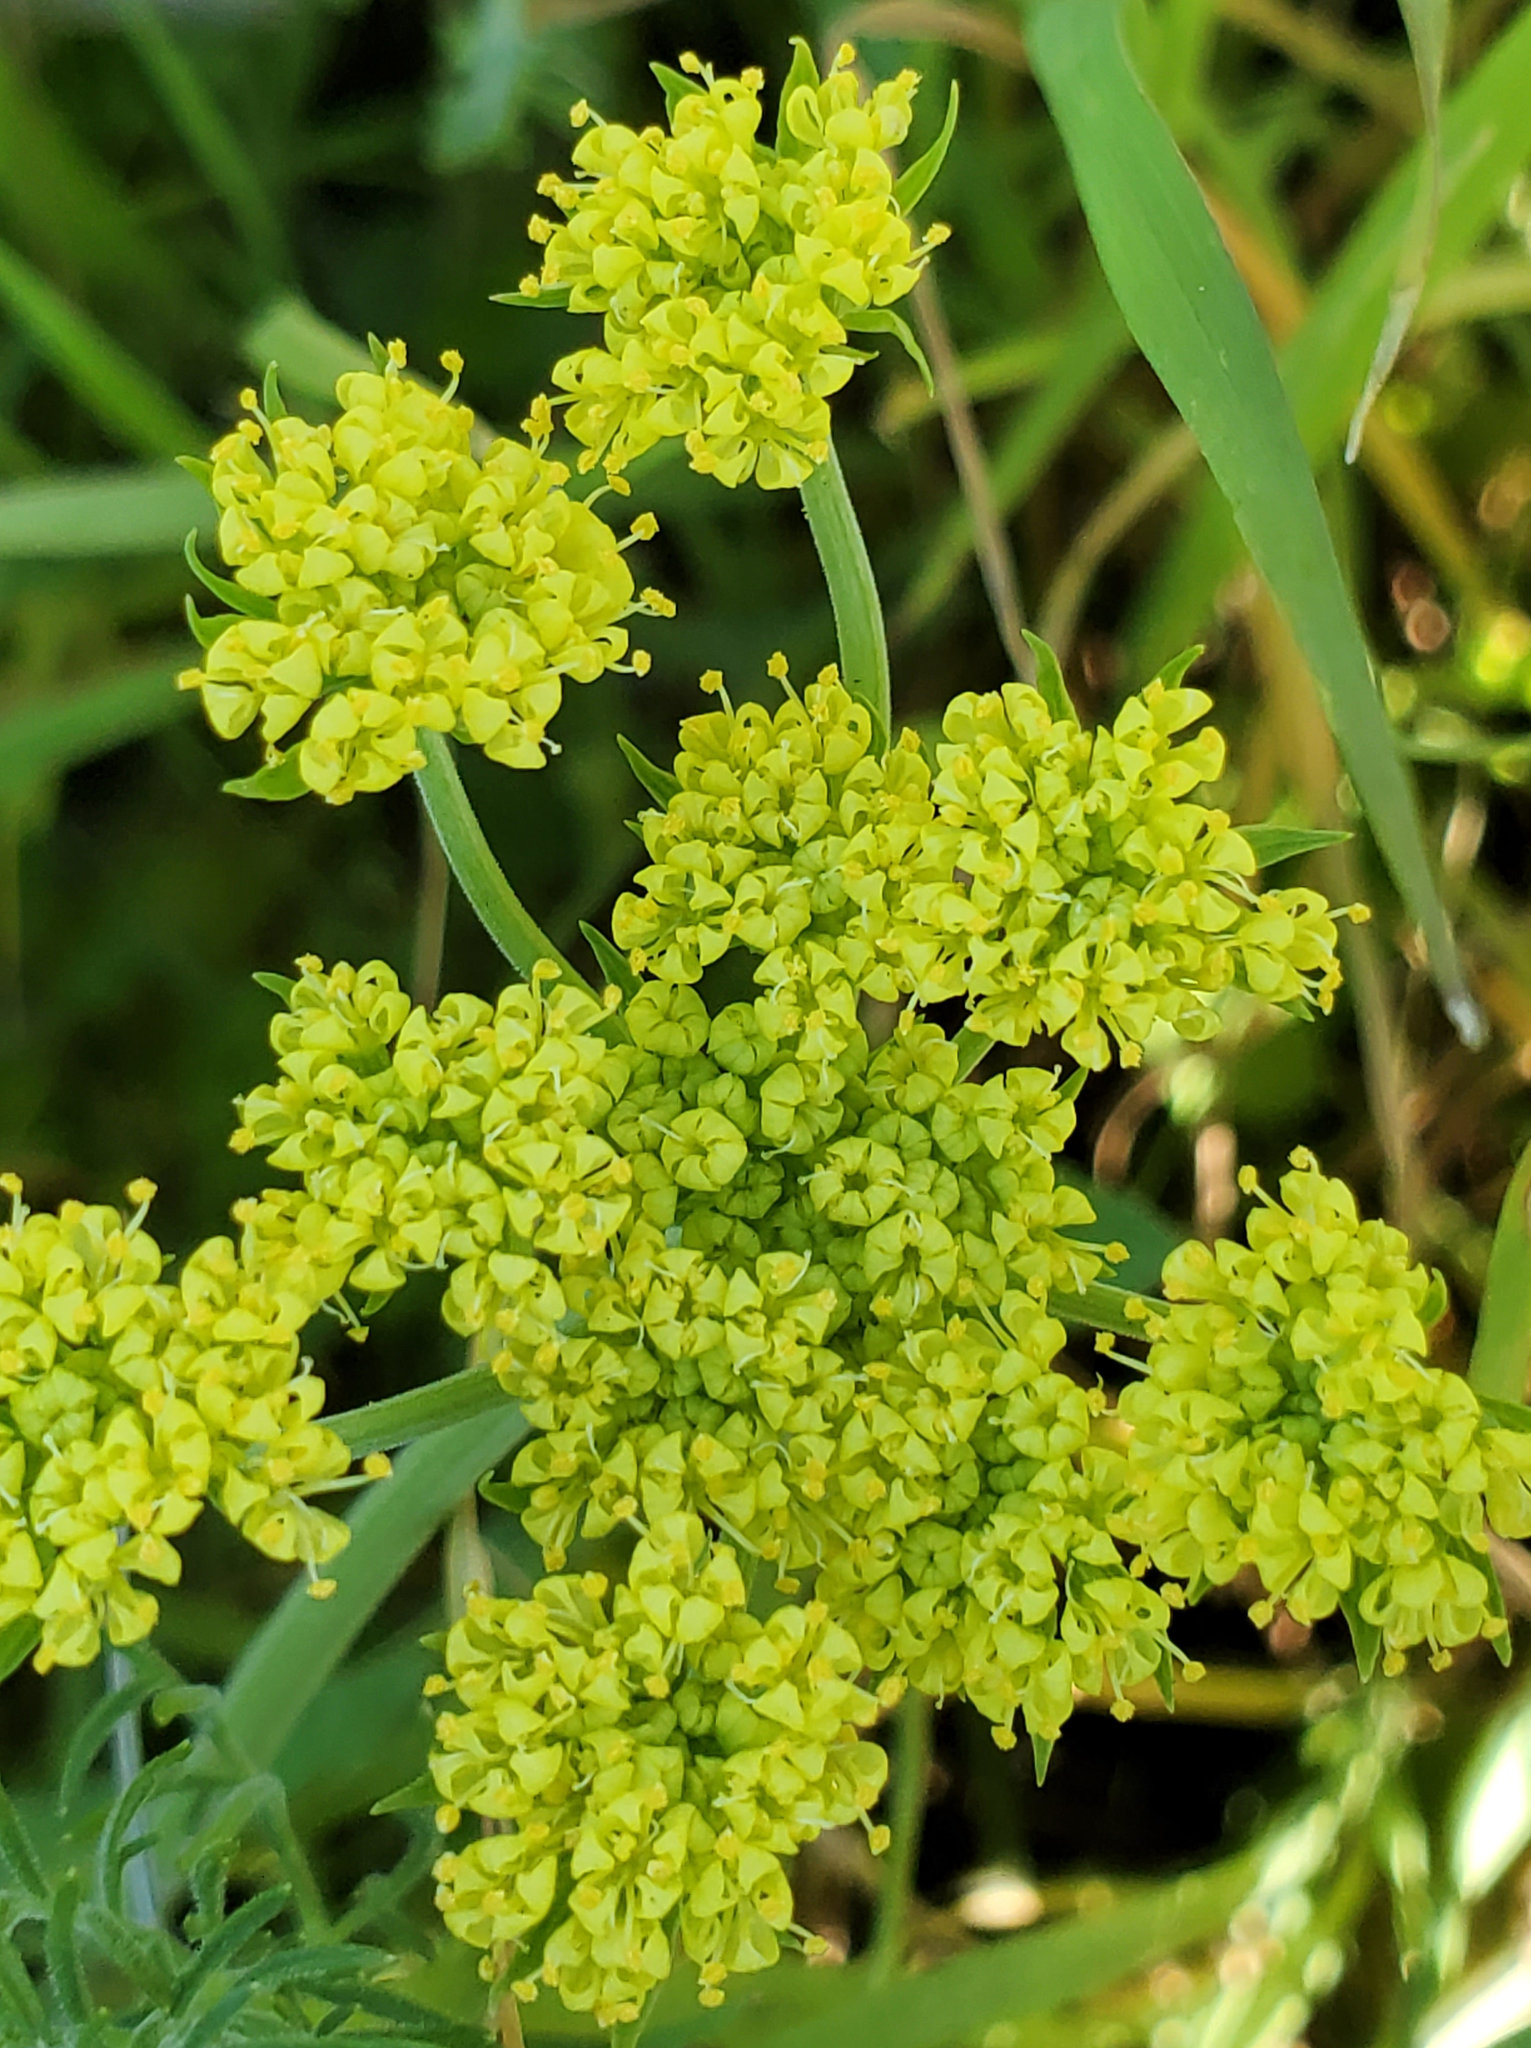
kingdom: Plantae
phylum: Tracheophyta
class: Magnoliopsida
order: Apiales
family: Apiaceae
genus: Lomatium
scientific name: Lomatium utriculatum
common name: Fine-leaf desert-parsley
